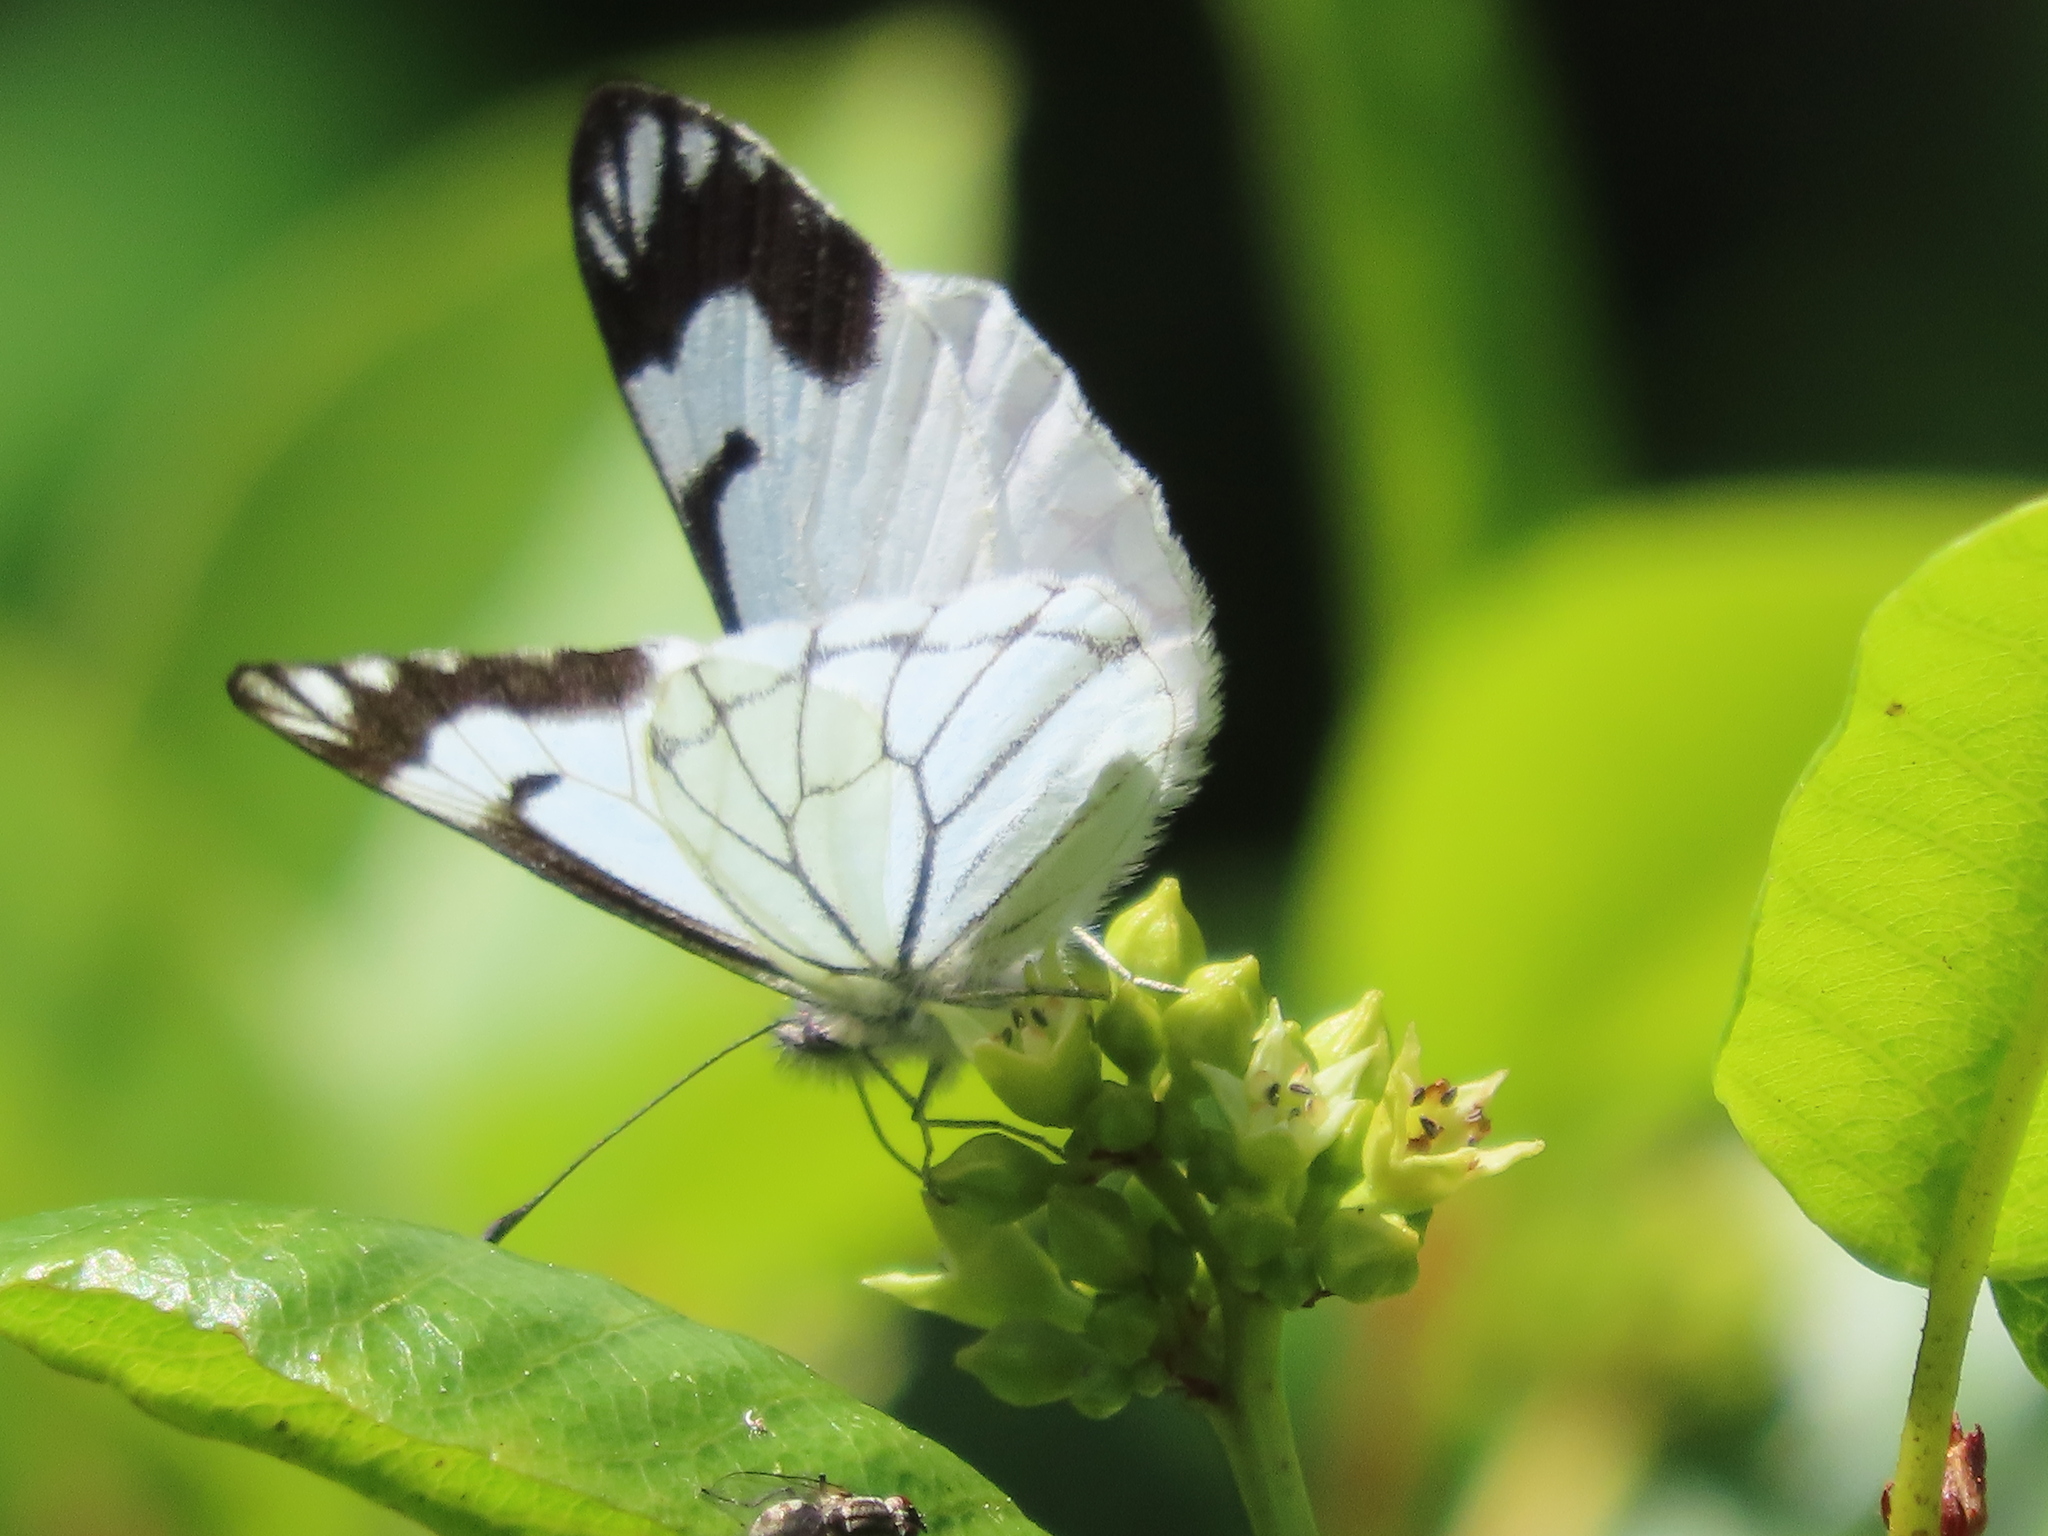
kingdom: Animalia
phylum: Arthropoda
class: Insecta
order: Lepidoptera
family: Pieridae
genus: Neophasia
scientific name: Neophasia menapia
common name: Pine white
